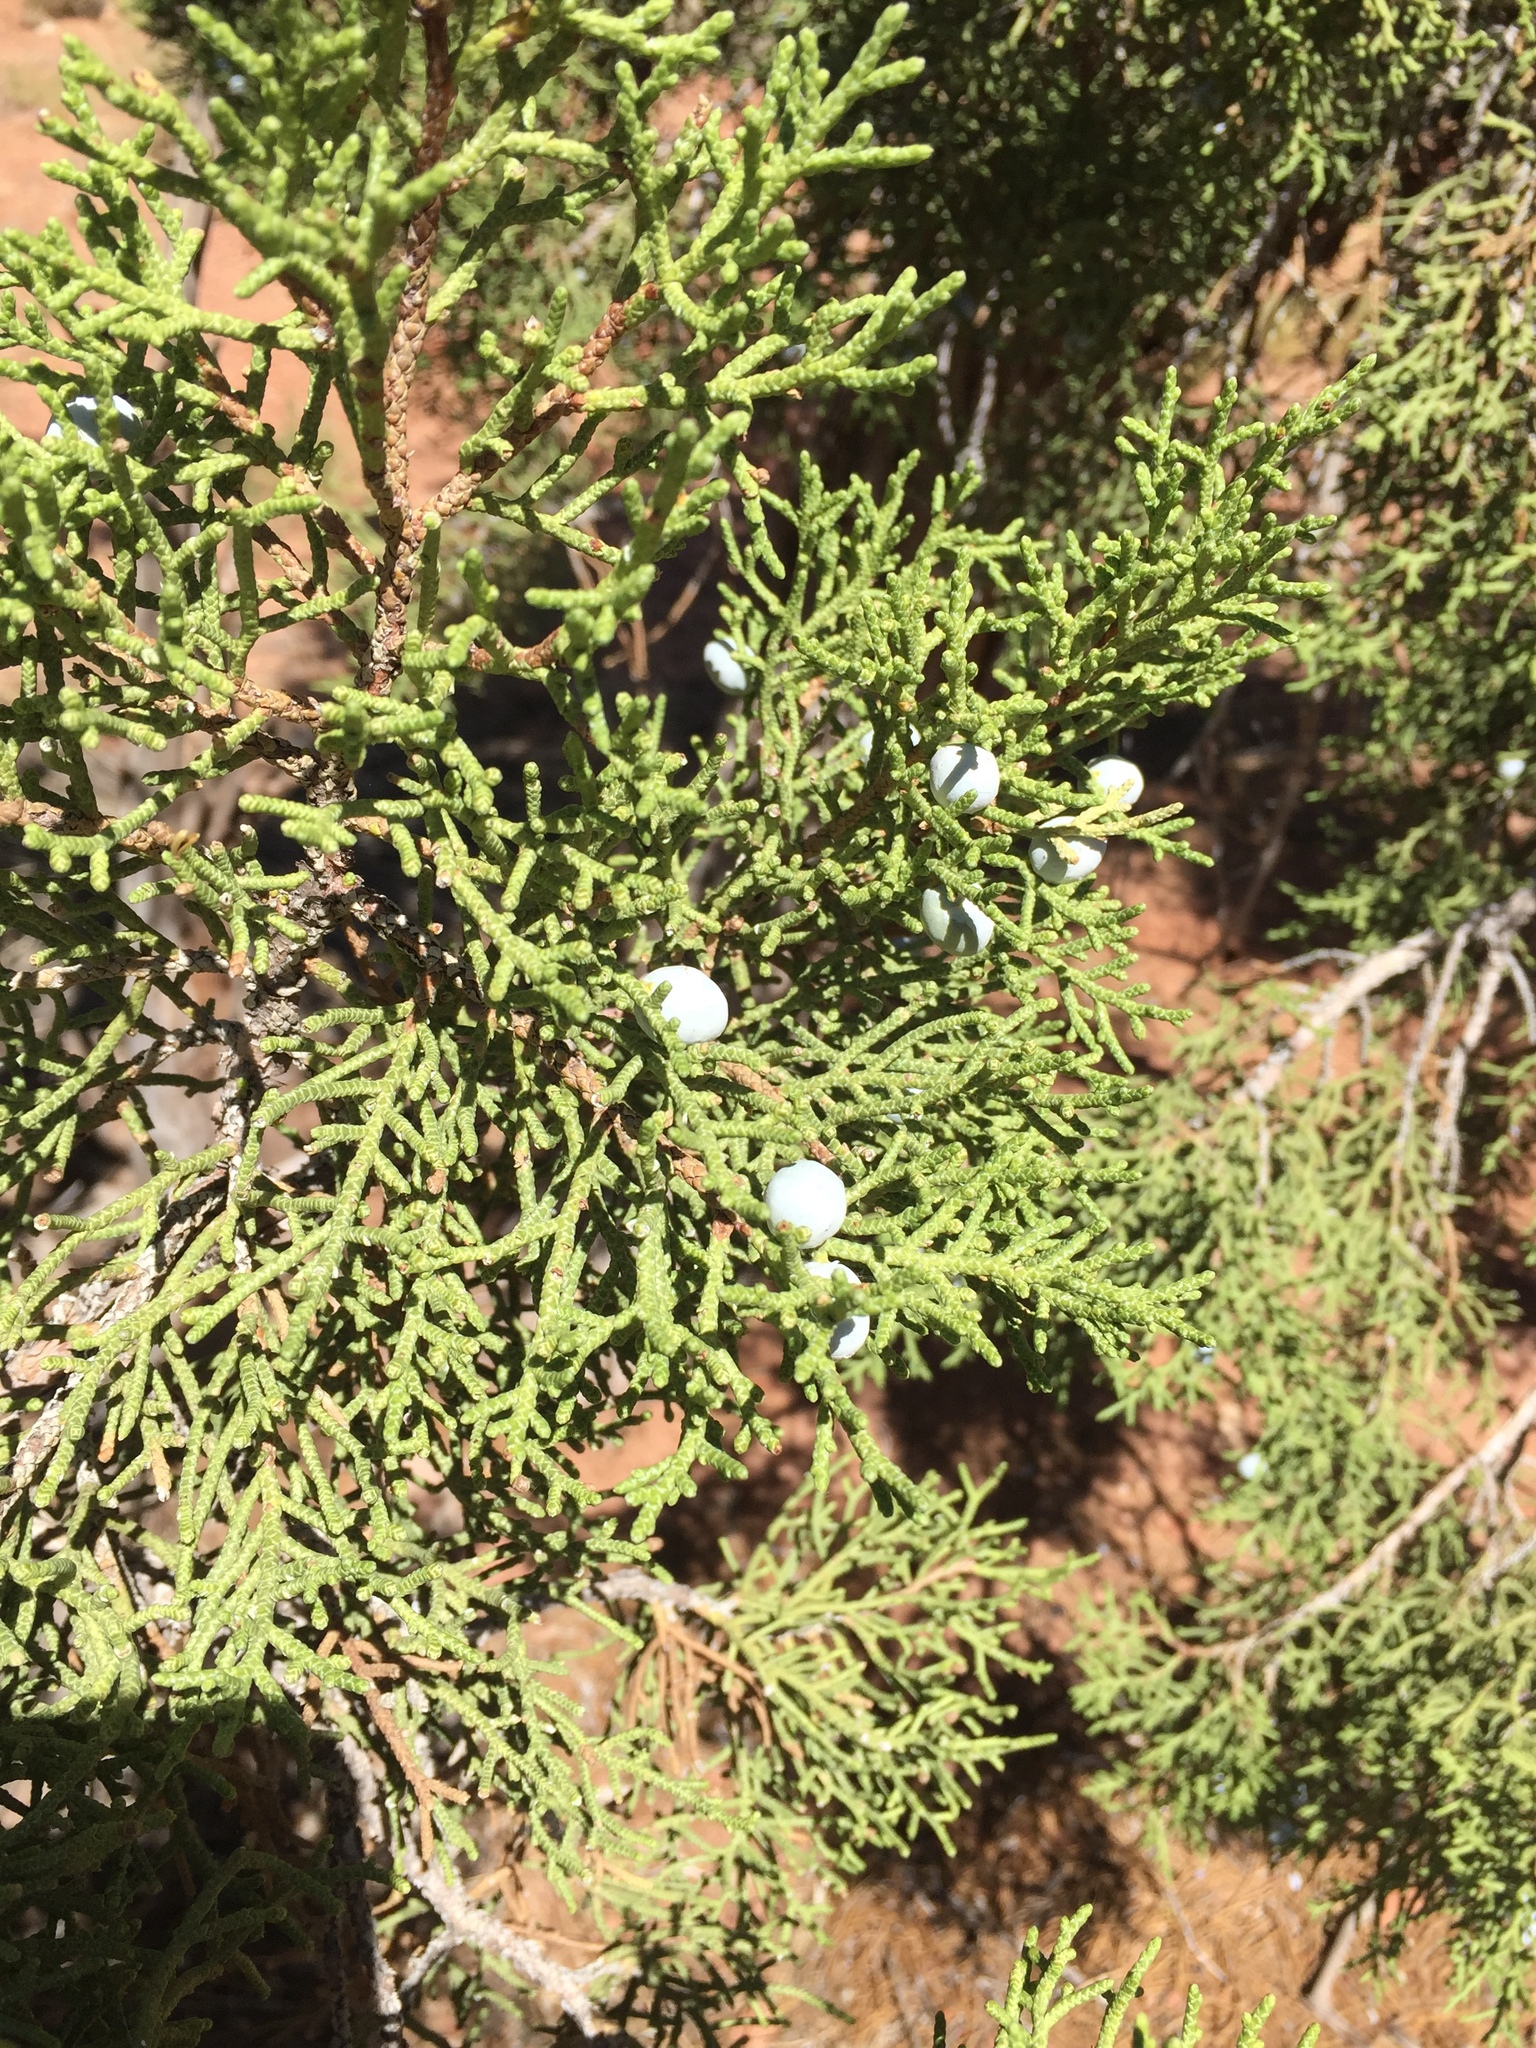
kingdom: Plantae
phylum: Tracheophyta
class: Pinopsida
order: Pinales
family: Cupressaceae
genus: Juniperus
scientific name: Juniperus osteosperma
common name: Utah juniper
